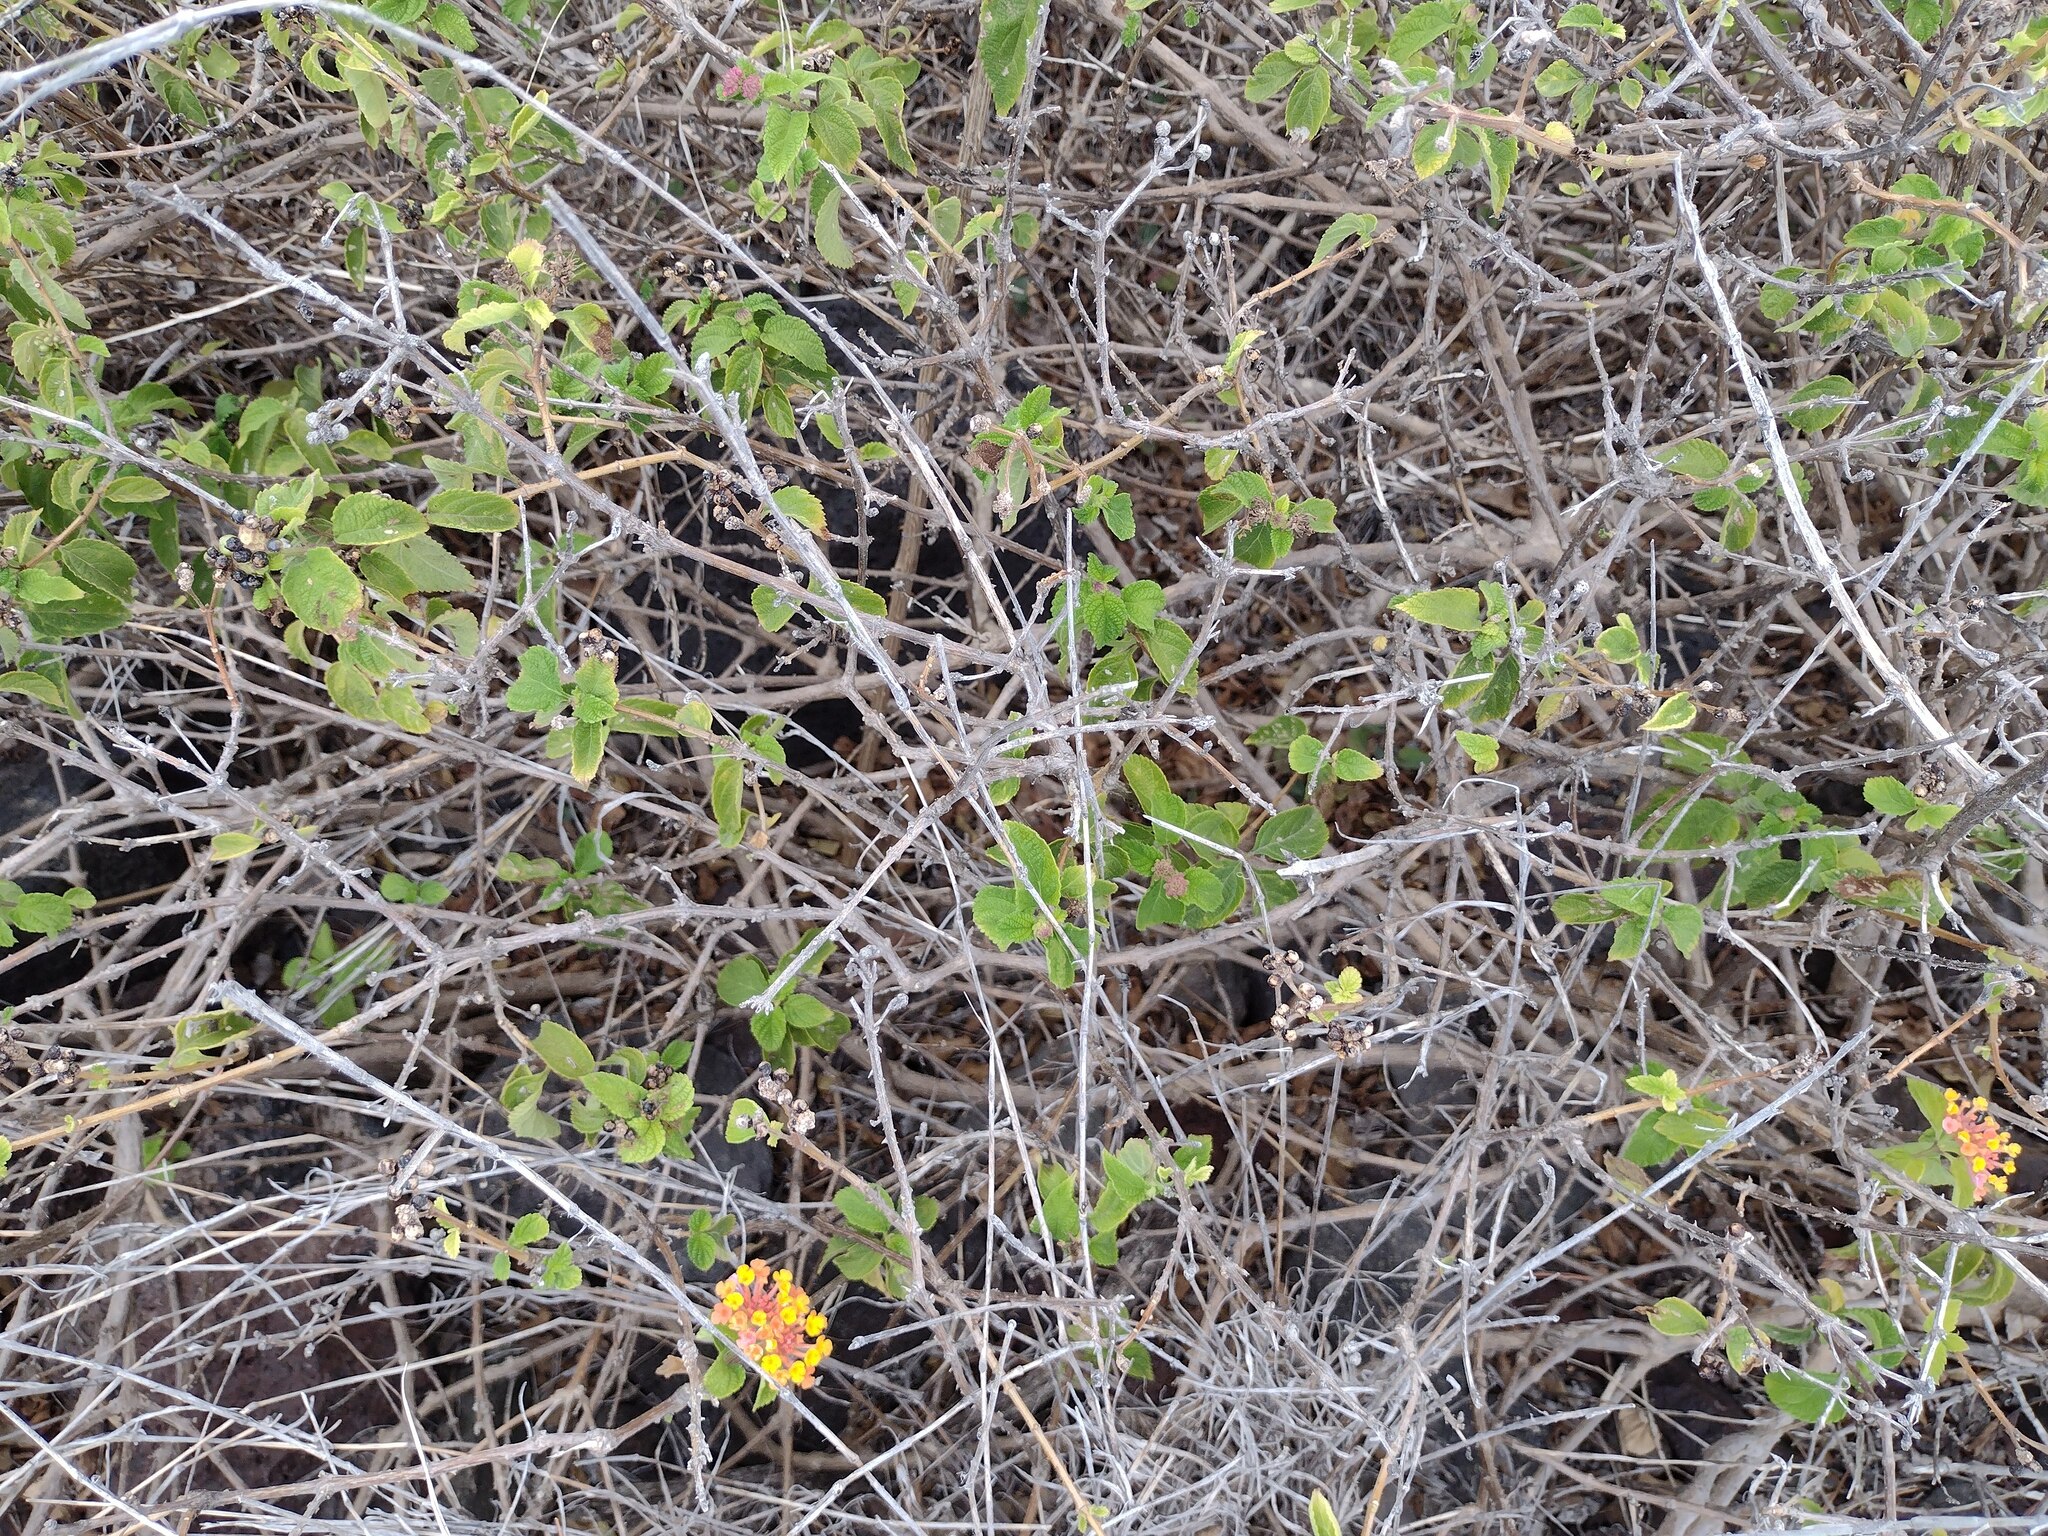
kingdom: Plantae
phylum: Tracheophyta
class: Magnoliopsida
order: Lamiales
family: Verbenaceae
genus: Lantana
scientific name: Lantana camara
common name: Lantana
